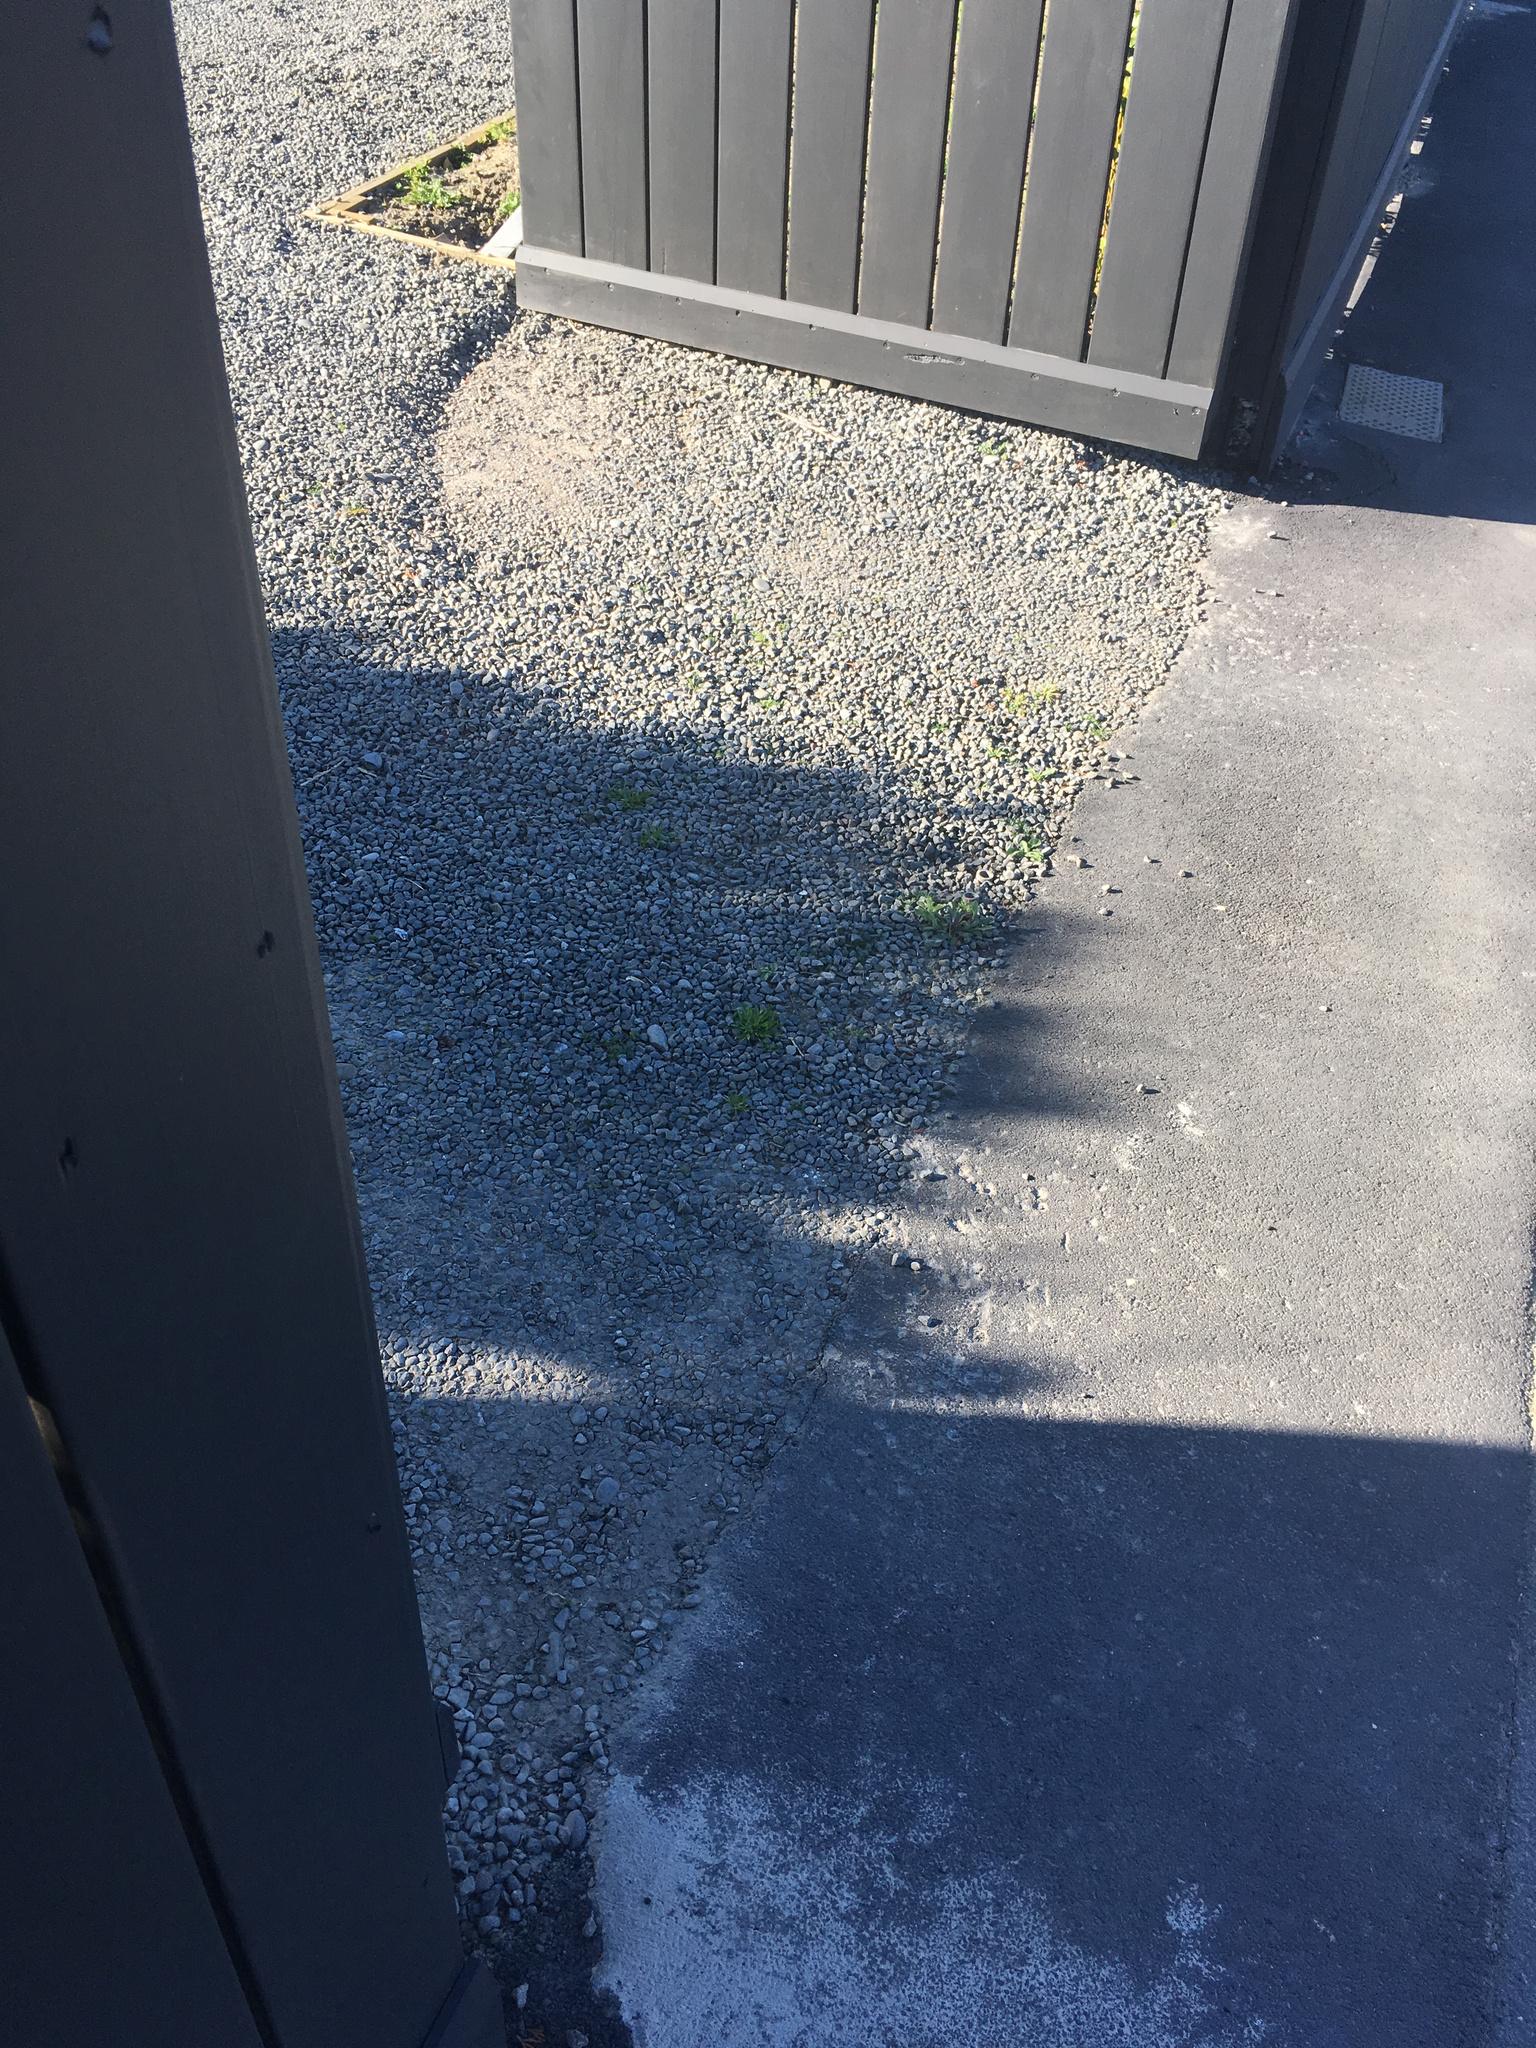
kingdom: Plantae
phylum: Tracheophyta
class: Magnoliopsida
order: Asterales
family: Asteraceae
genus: Senecio
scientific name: Senecio glomeratus
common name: Cutleaf burnweed
